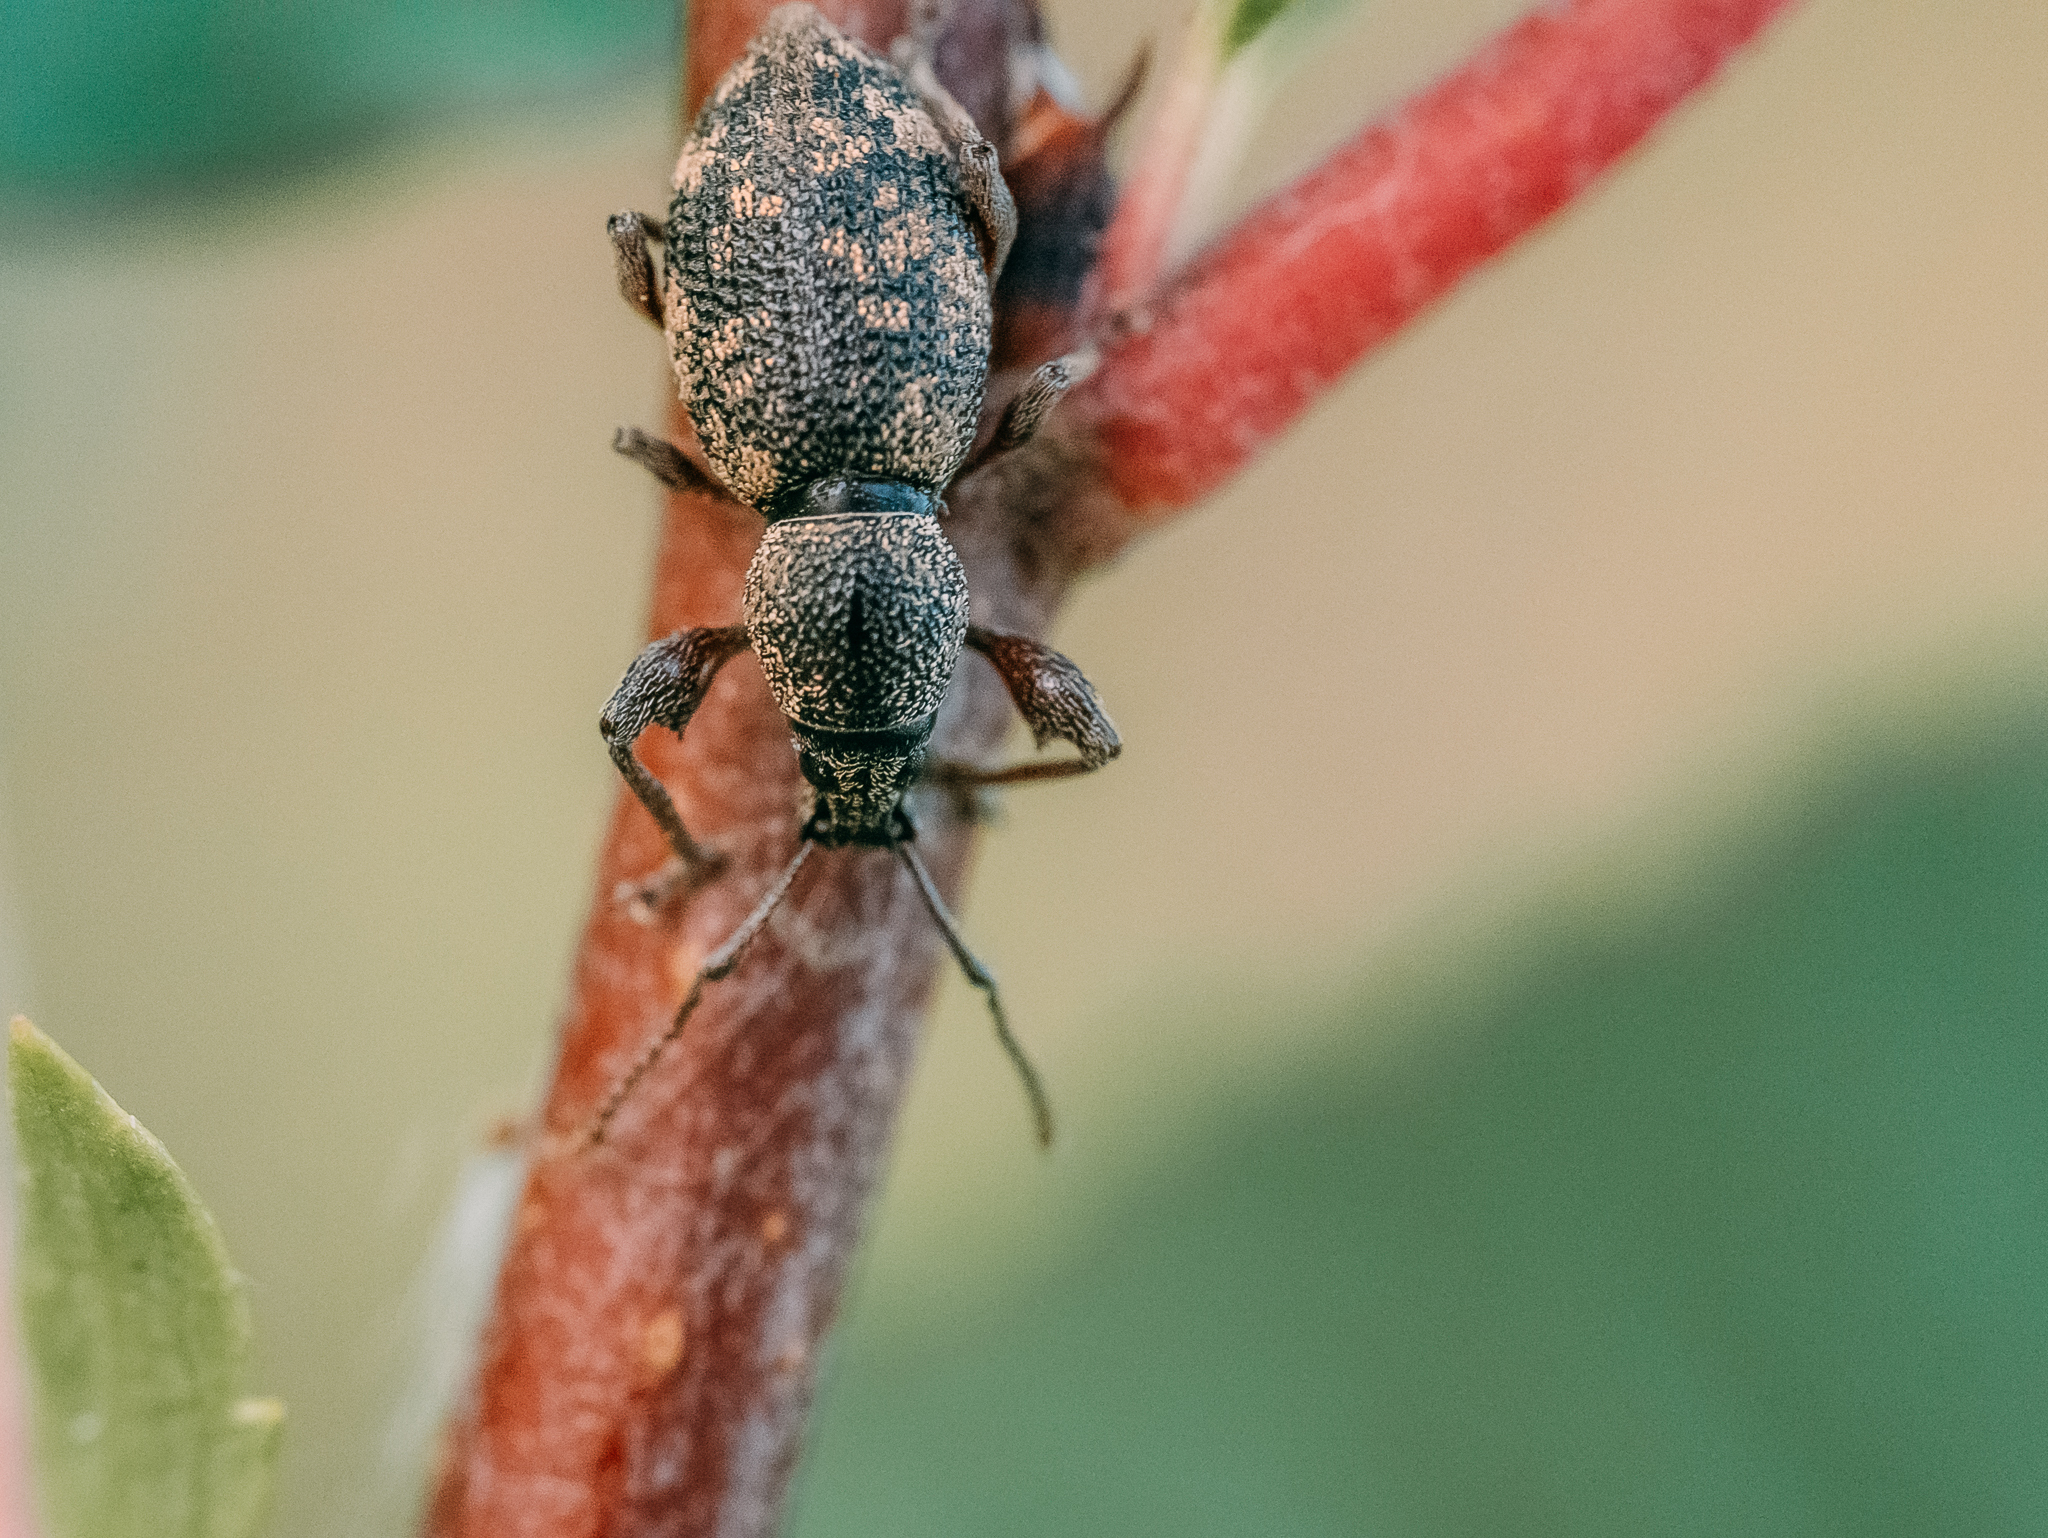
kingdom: Animalia
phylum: Arthropoda
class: Insecta
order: Coleoptera
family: Curculionidae
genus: Otiorhynchus
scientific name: Otiorhynchus fullo
